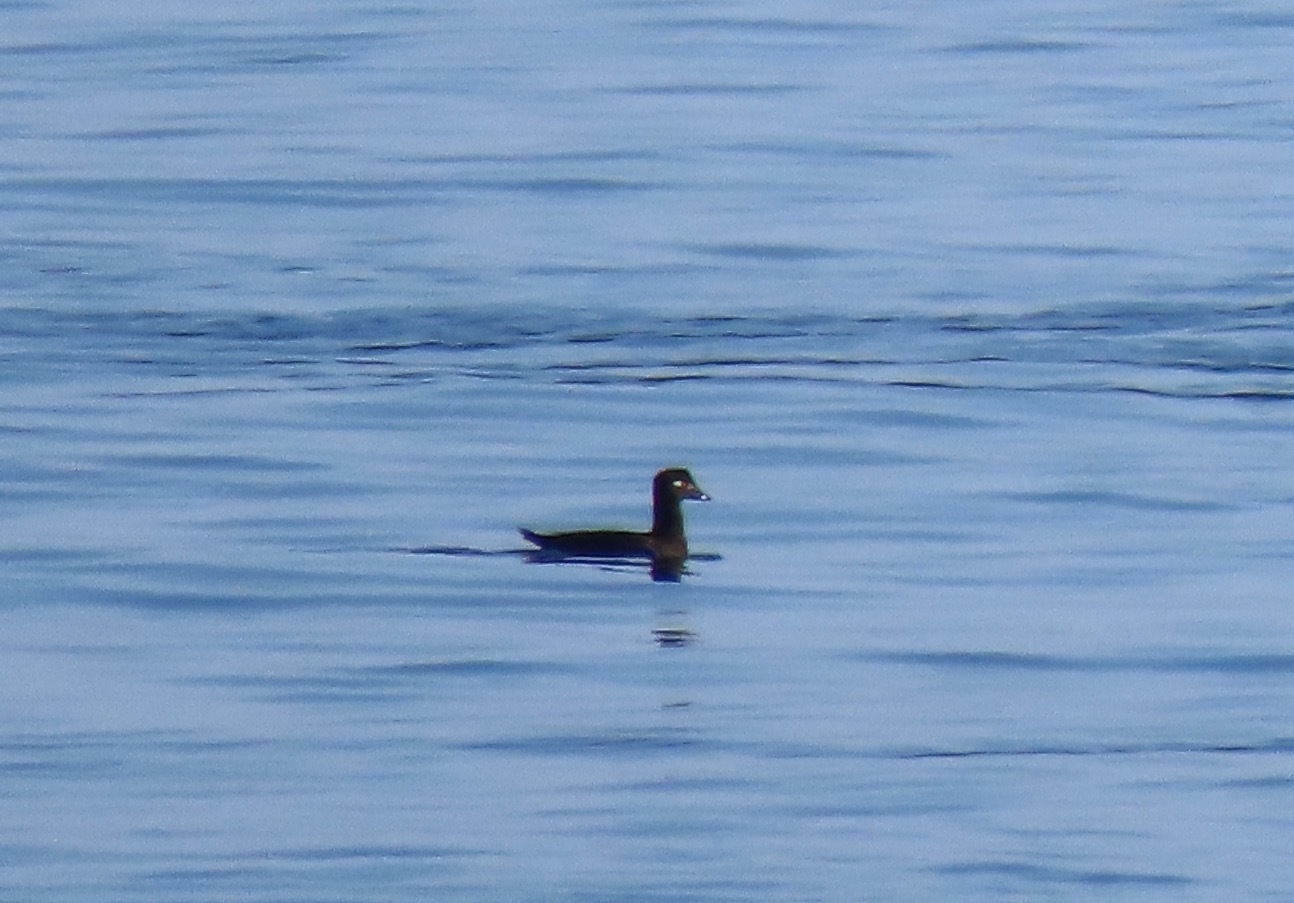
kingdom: Animalia
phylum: Chordata
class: Aves
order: Anseriformes
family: Anatidae
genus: Melanitta
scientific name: Melanitta perspicillata
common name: Surf scoter
